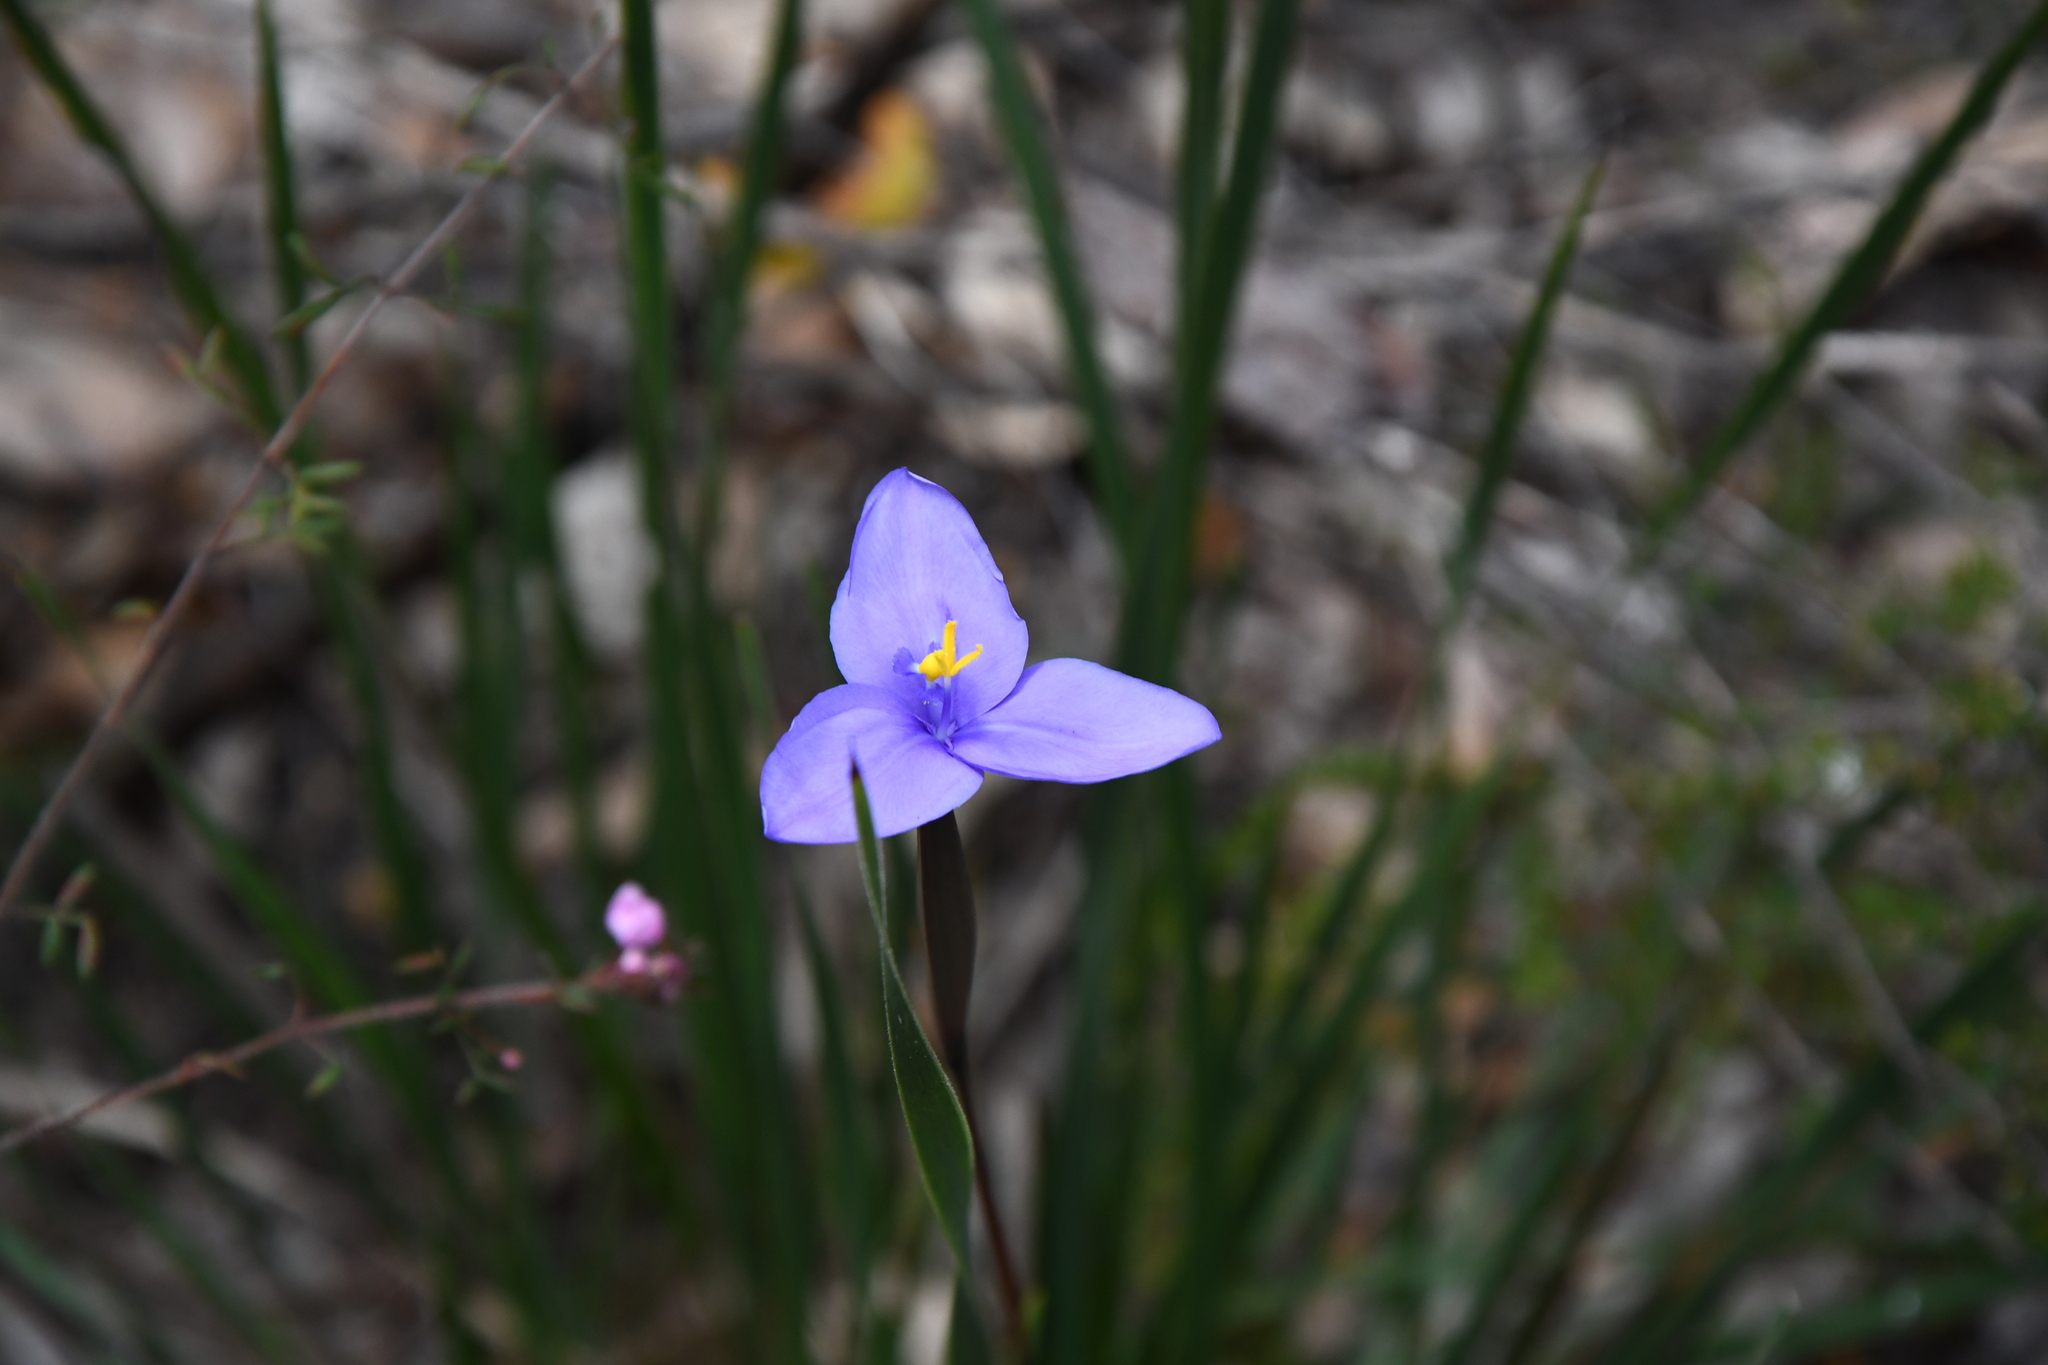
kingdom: Plantae
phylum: Tracheophyta
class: Liliopsida
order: Asparagales
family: Iridaceae
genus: Patersonia
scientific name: Patersonia umbrosa
